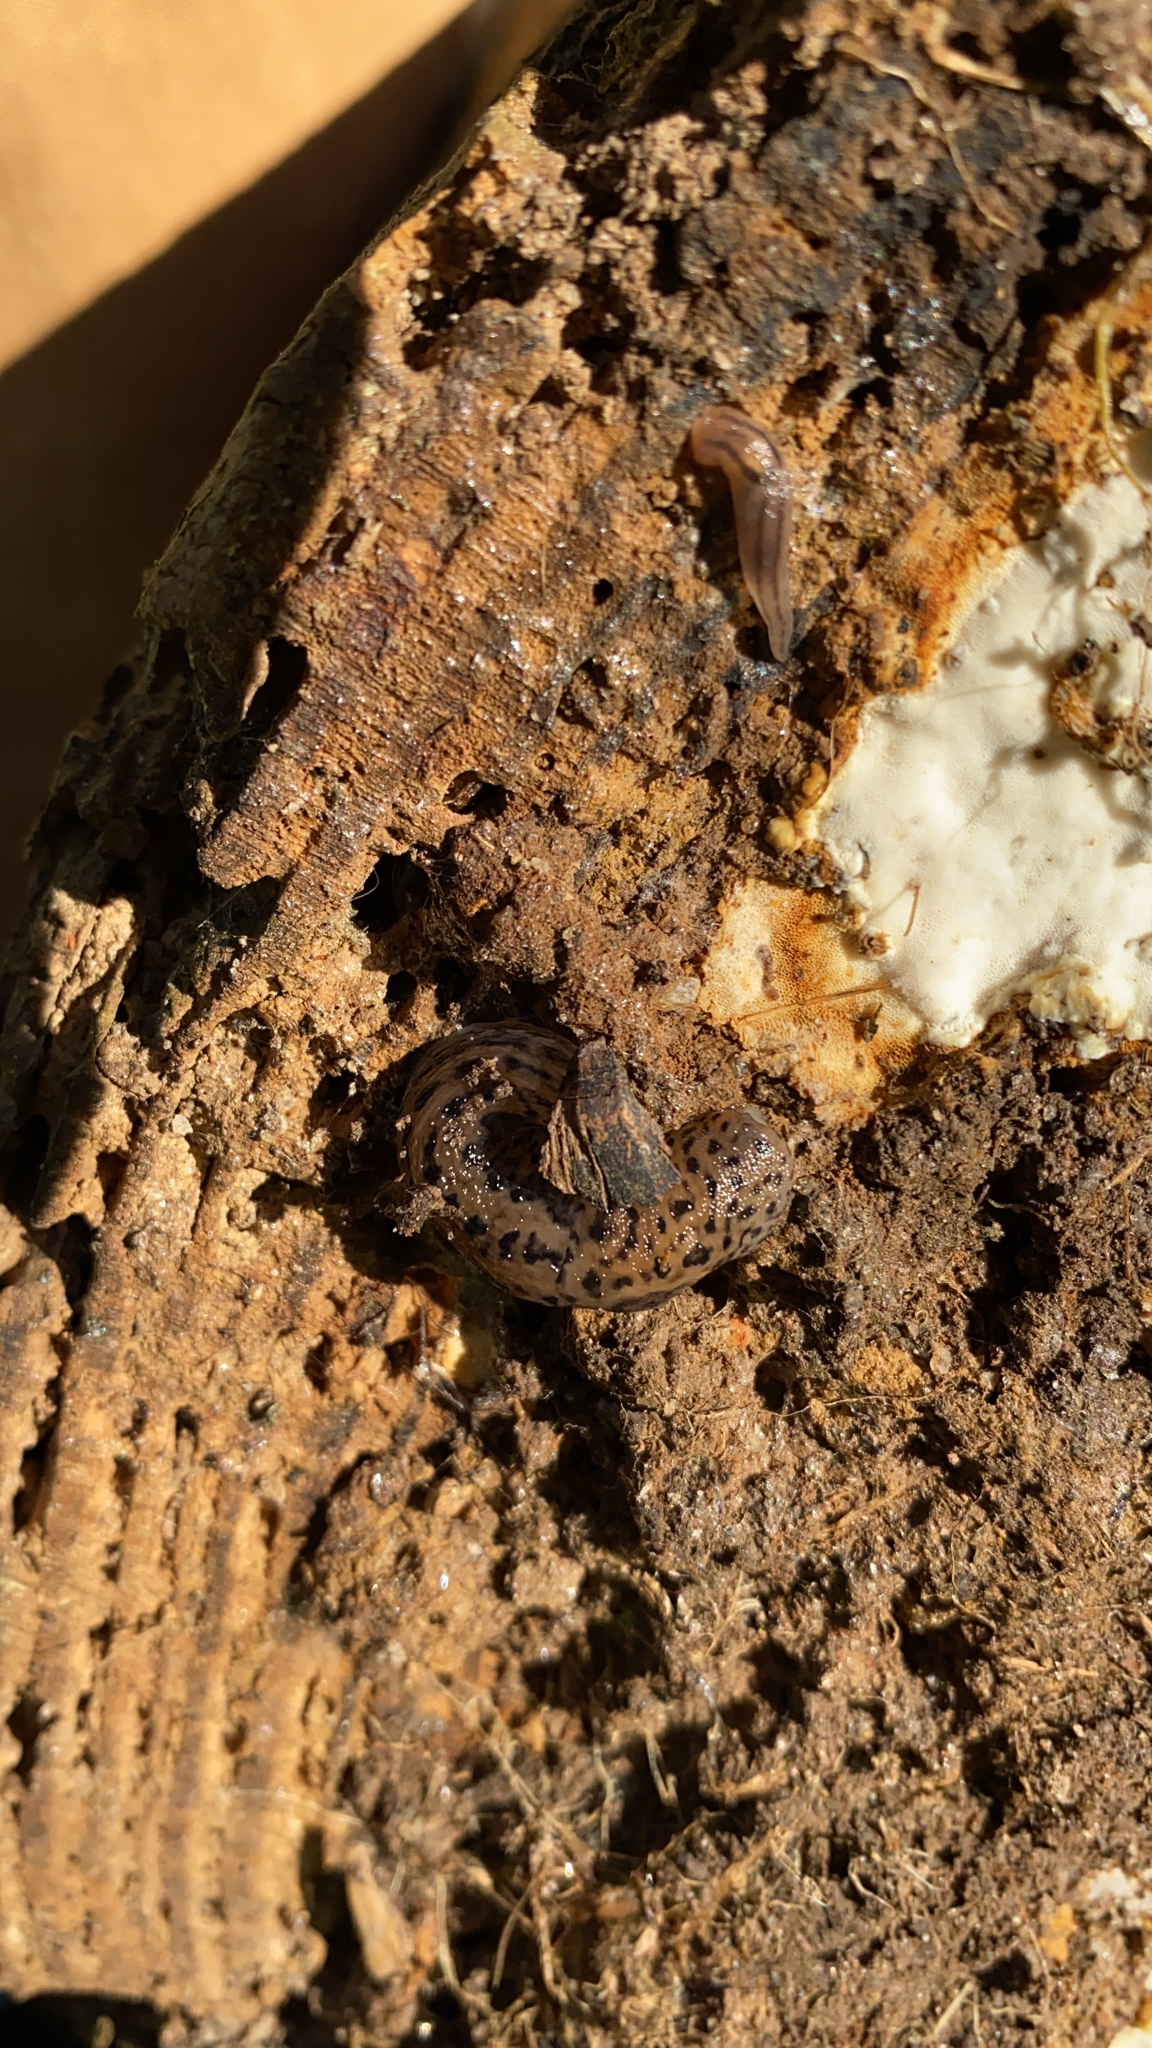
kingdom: Animalia
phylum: Mollusca
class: Gastropoda
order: Stylommatophora
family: Limacidae
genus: Limax
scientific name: Limax maximus
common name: Great grey slug
